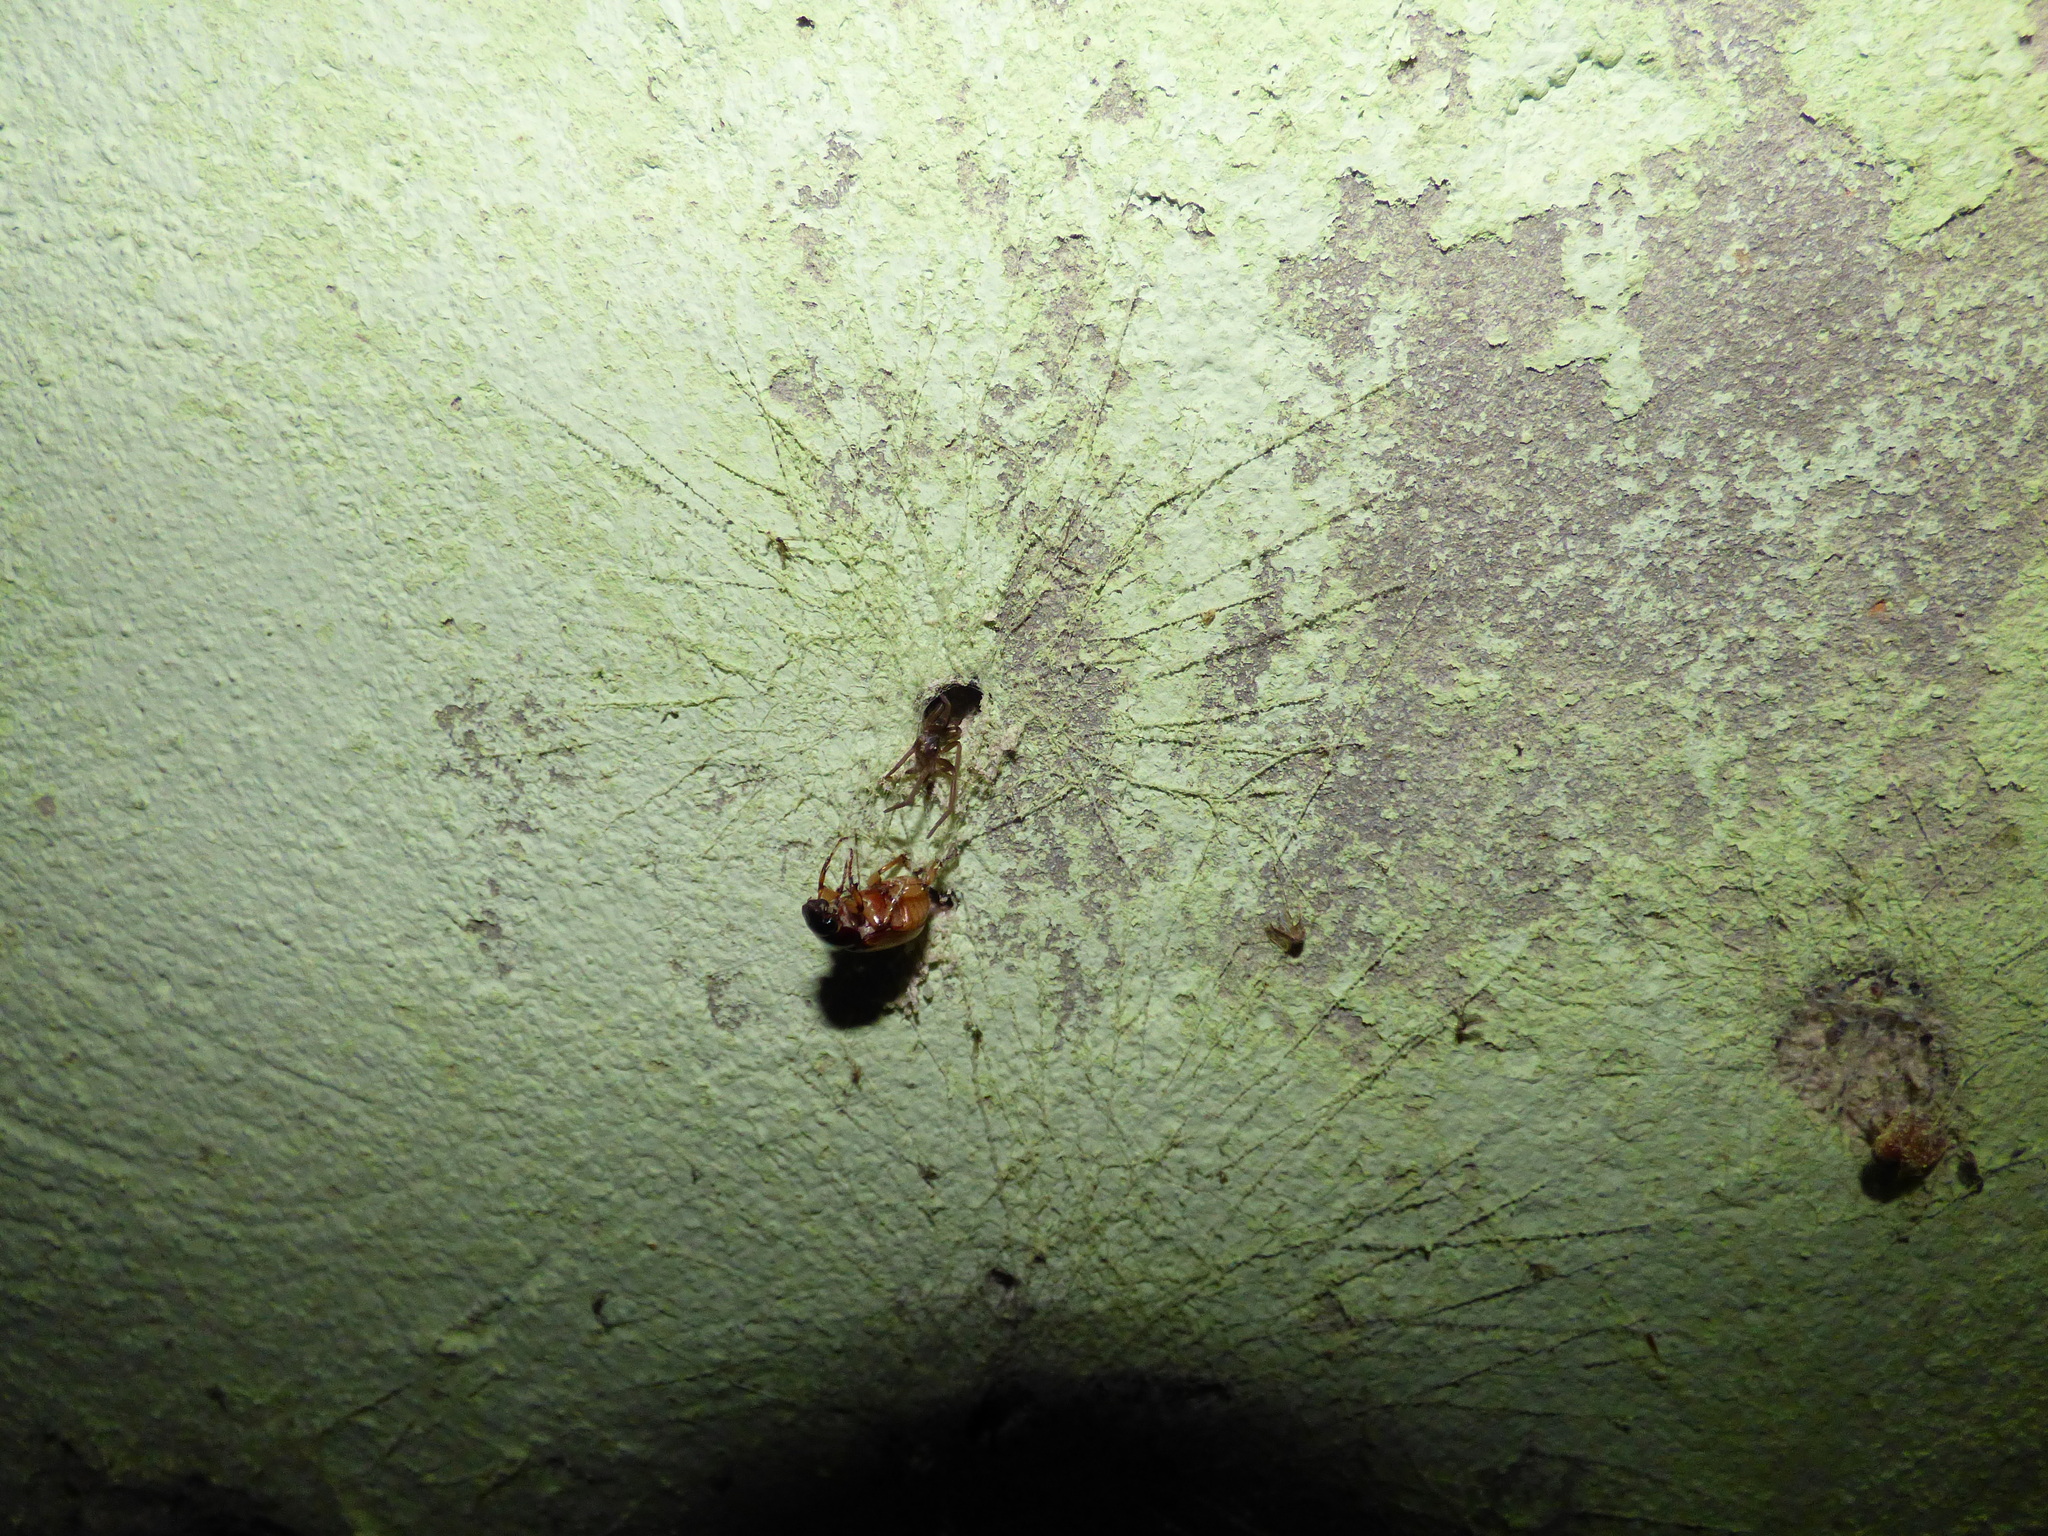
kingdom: Animalia
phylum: Arthropoda
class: Arachnida
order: Araneae
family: Filistatidae
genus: Kukulcania
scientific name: Kukulcania hibernalis
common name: Crevice weaver
